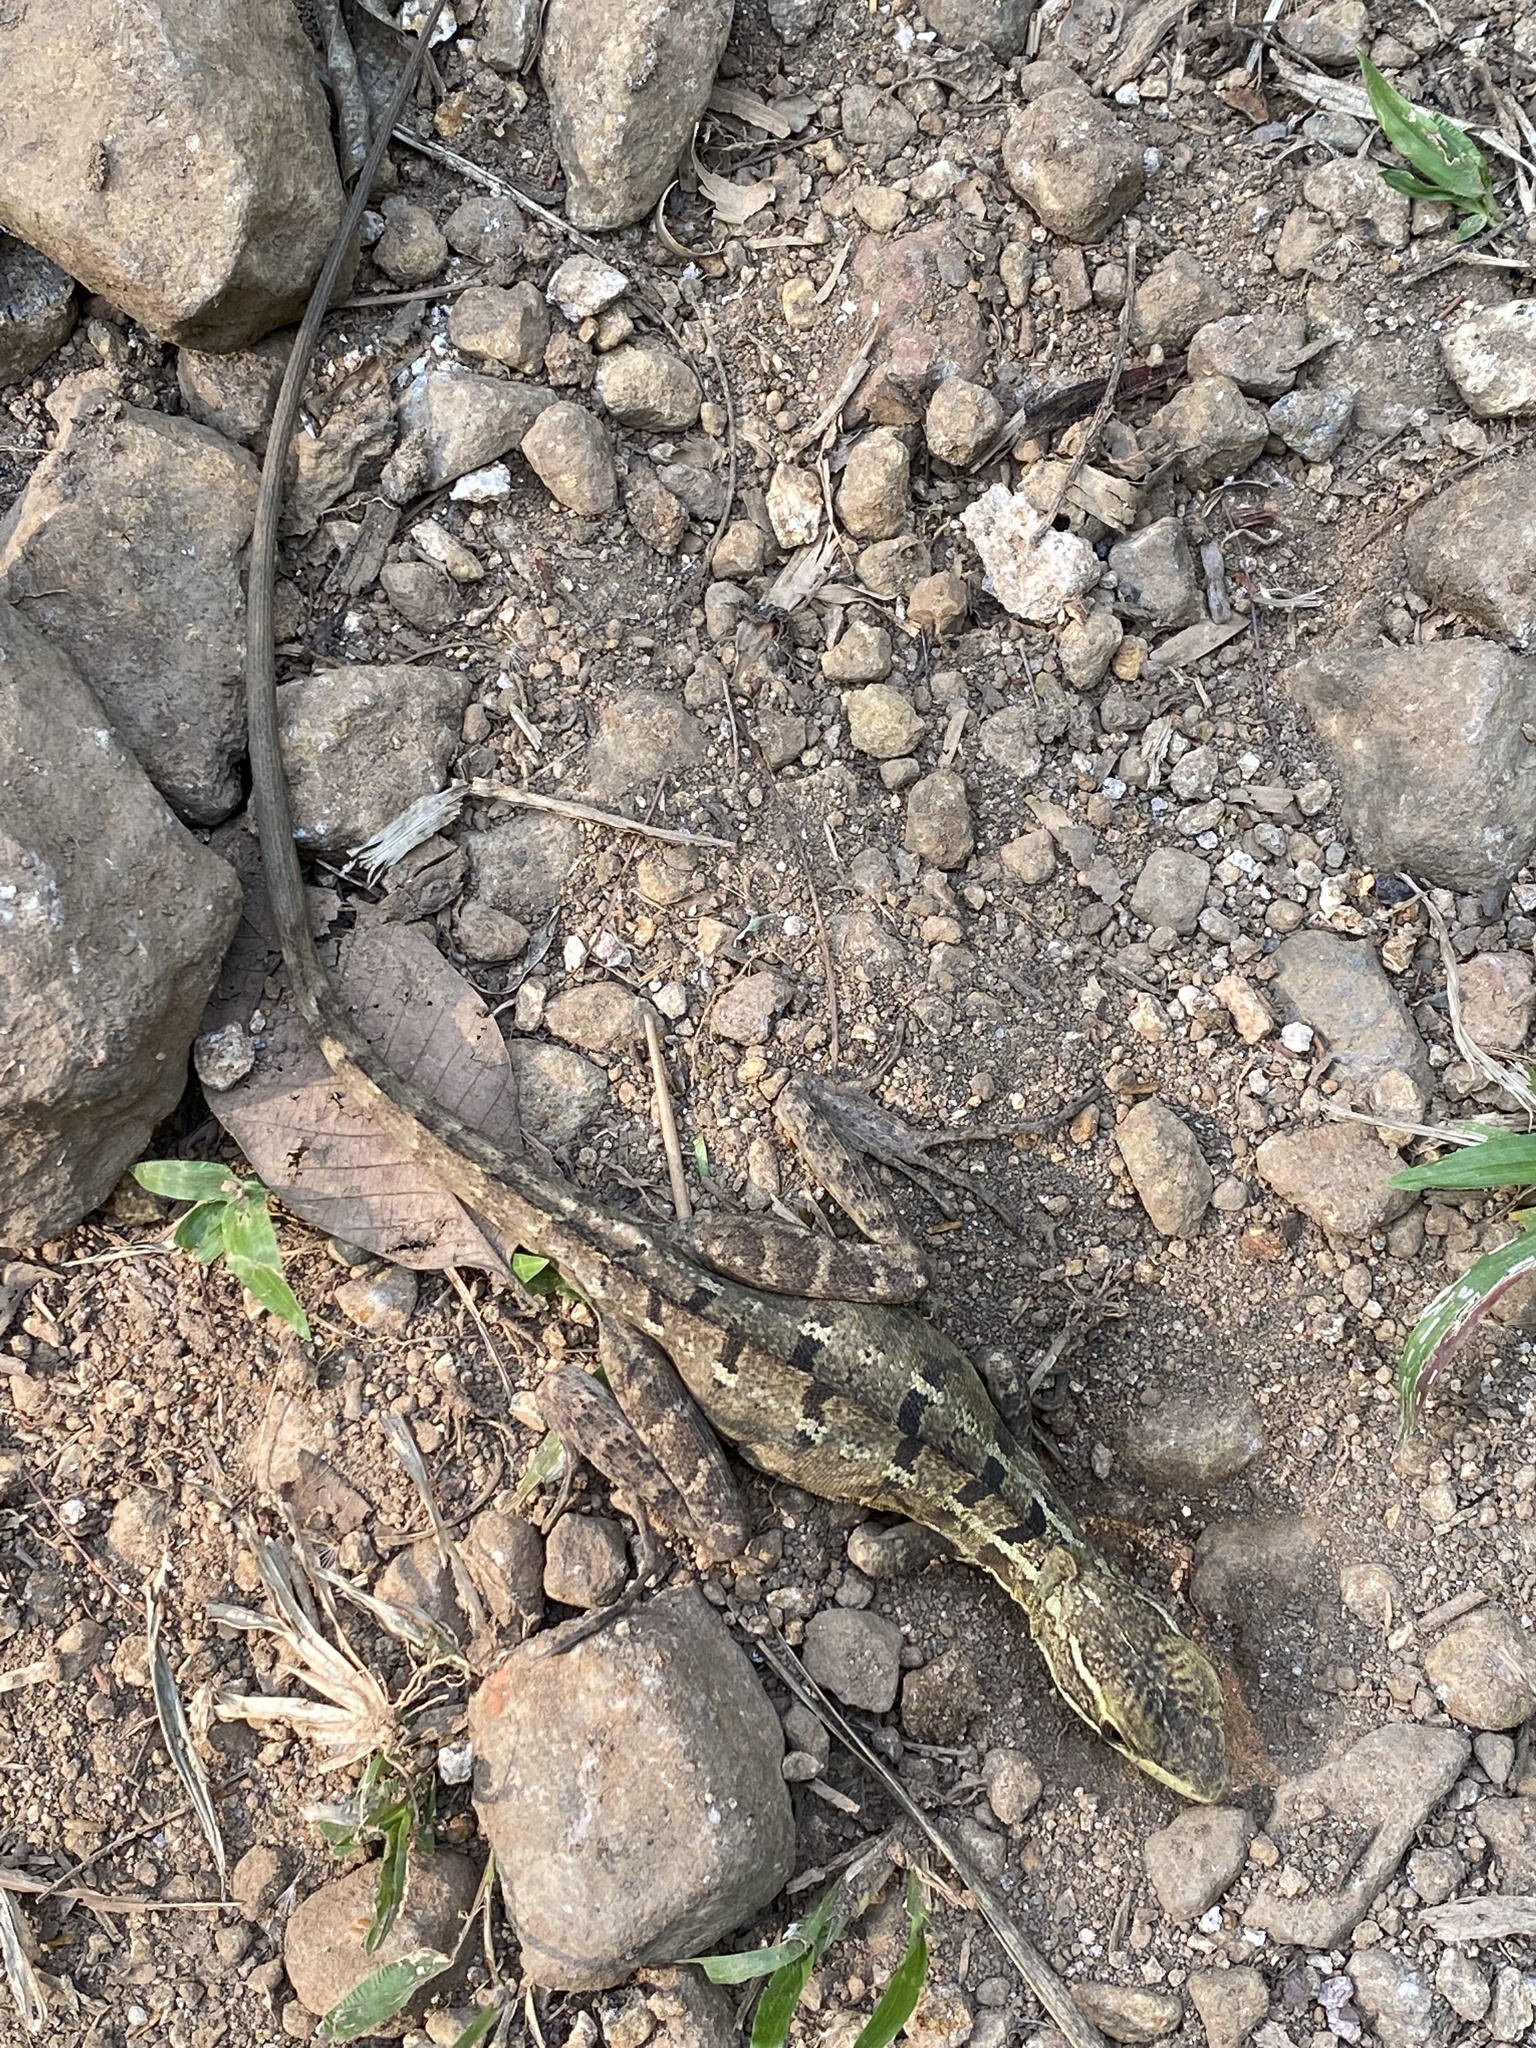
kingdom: Animalia
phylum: Chordata
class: Squamata
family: Corytophanidae
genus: Basiliscus
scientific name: Basiliscus vittatus
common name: Brown basilisk
